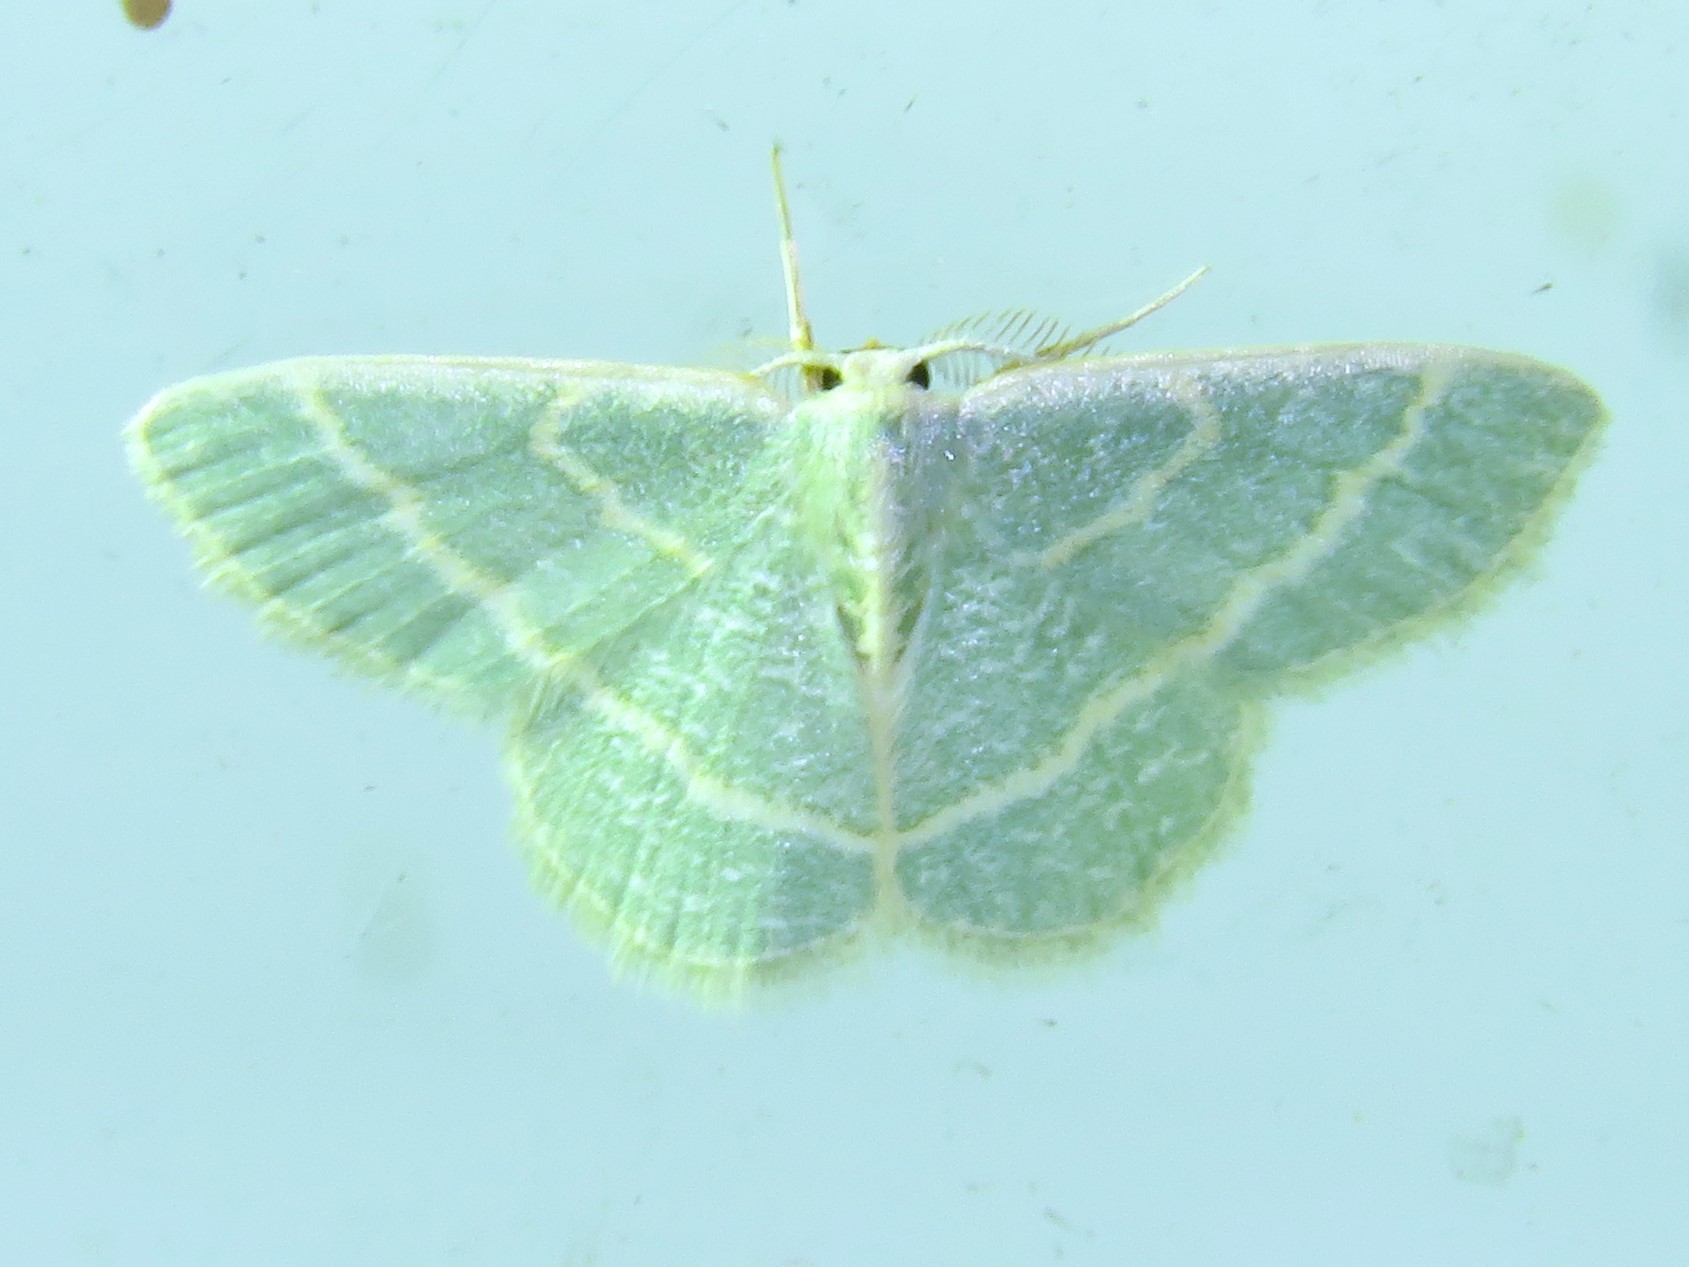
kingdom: Animalia
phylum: Arthropoda
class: Insecta
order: Lepidoptera
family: Geometridae
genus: Chlorochlamys
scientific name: Chlorochlamys chloroleucaria
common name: Blackberry looper
